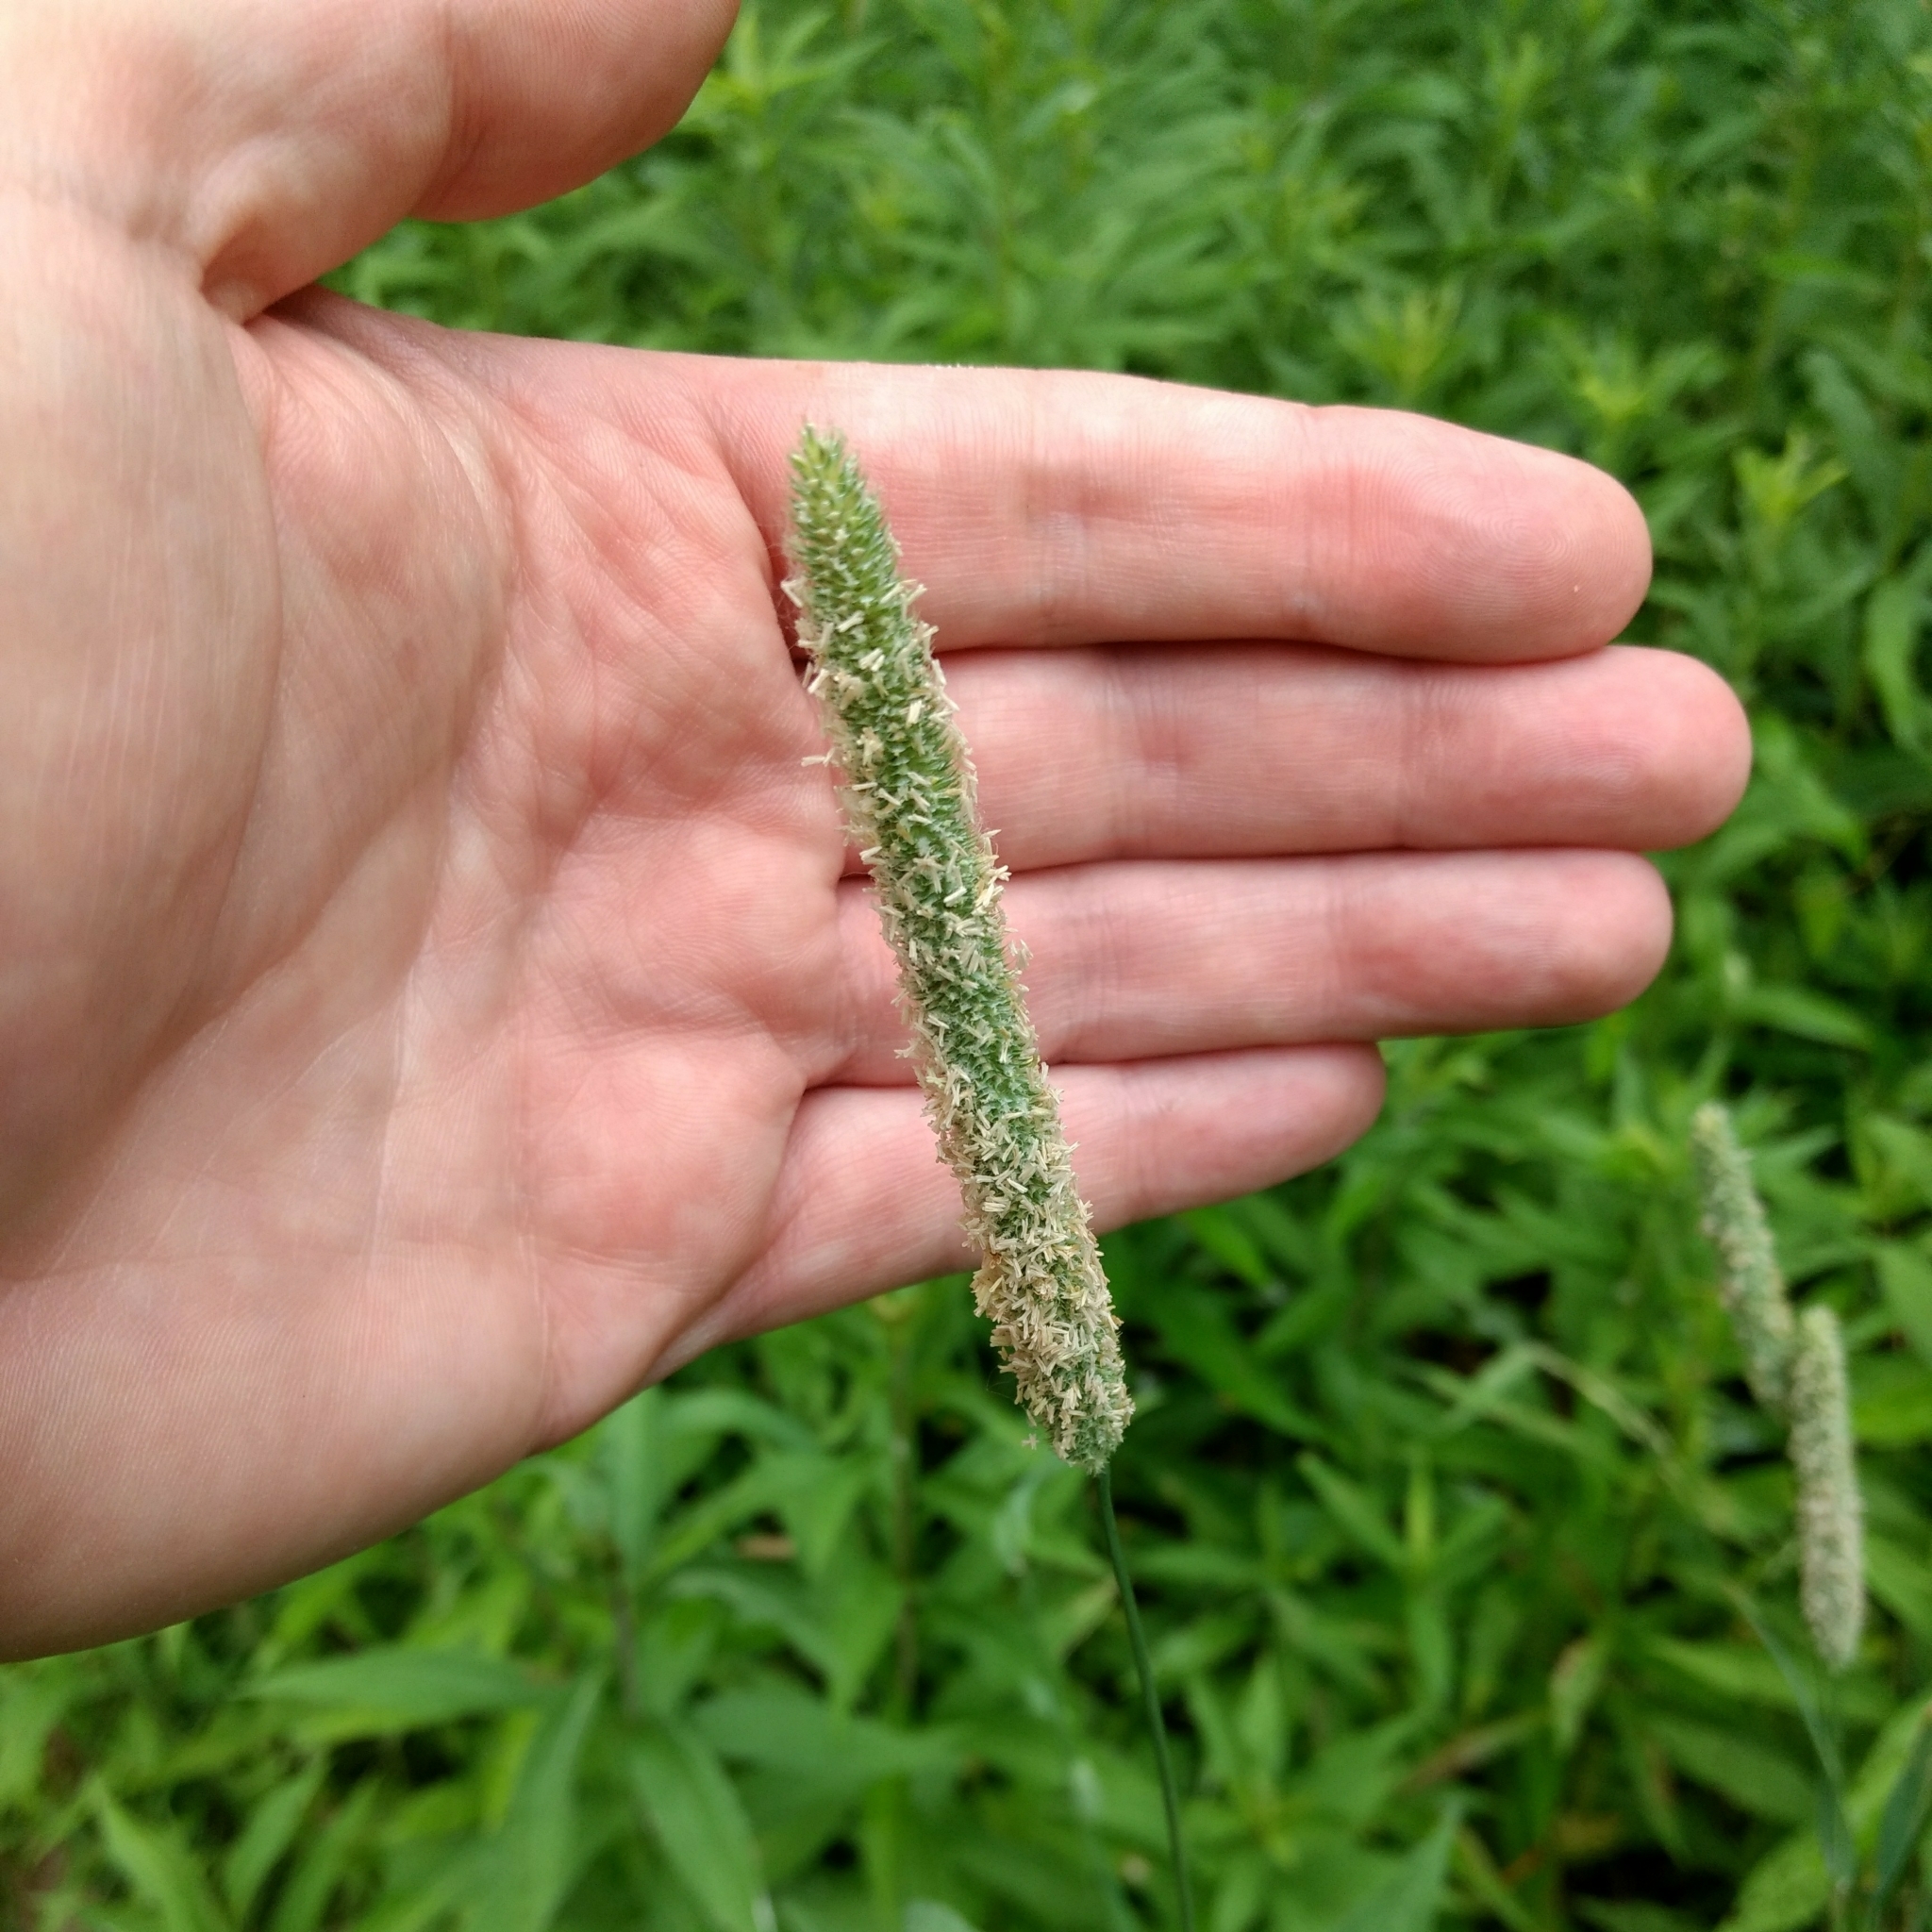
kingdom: Plantae
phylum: Tracheophyta
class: Liliopsida
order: Poales
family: Poaceae
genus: Phleum
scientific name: Phleum pratense
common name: Timothy grass
